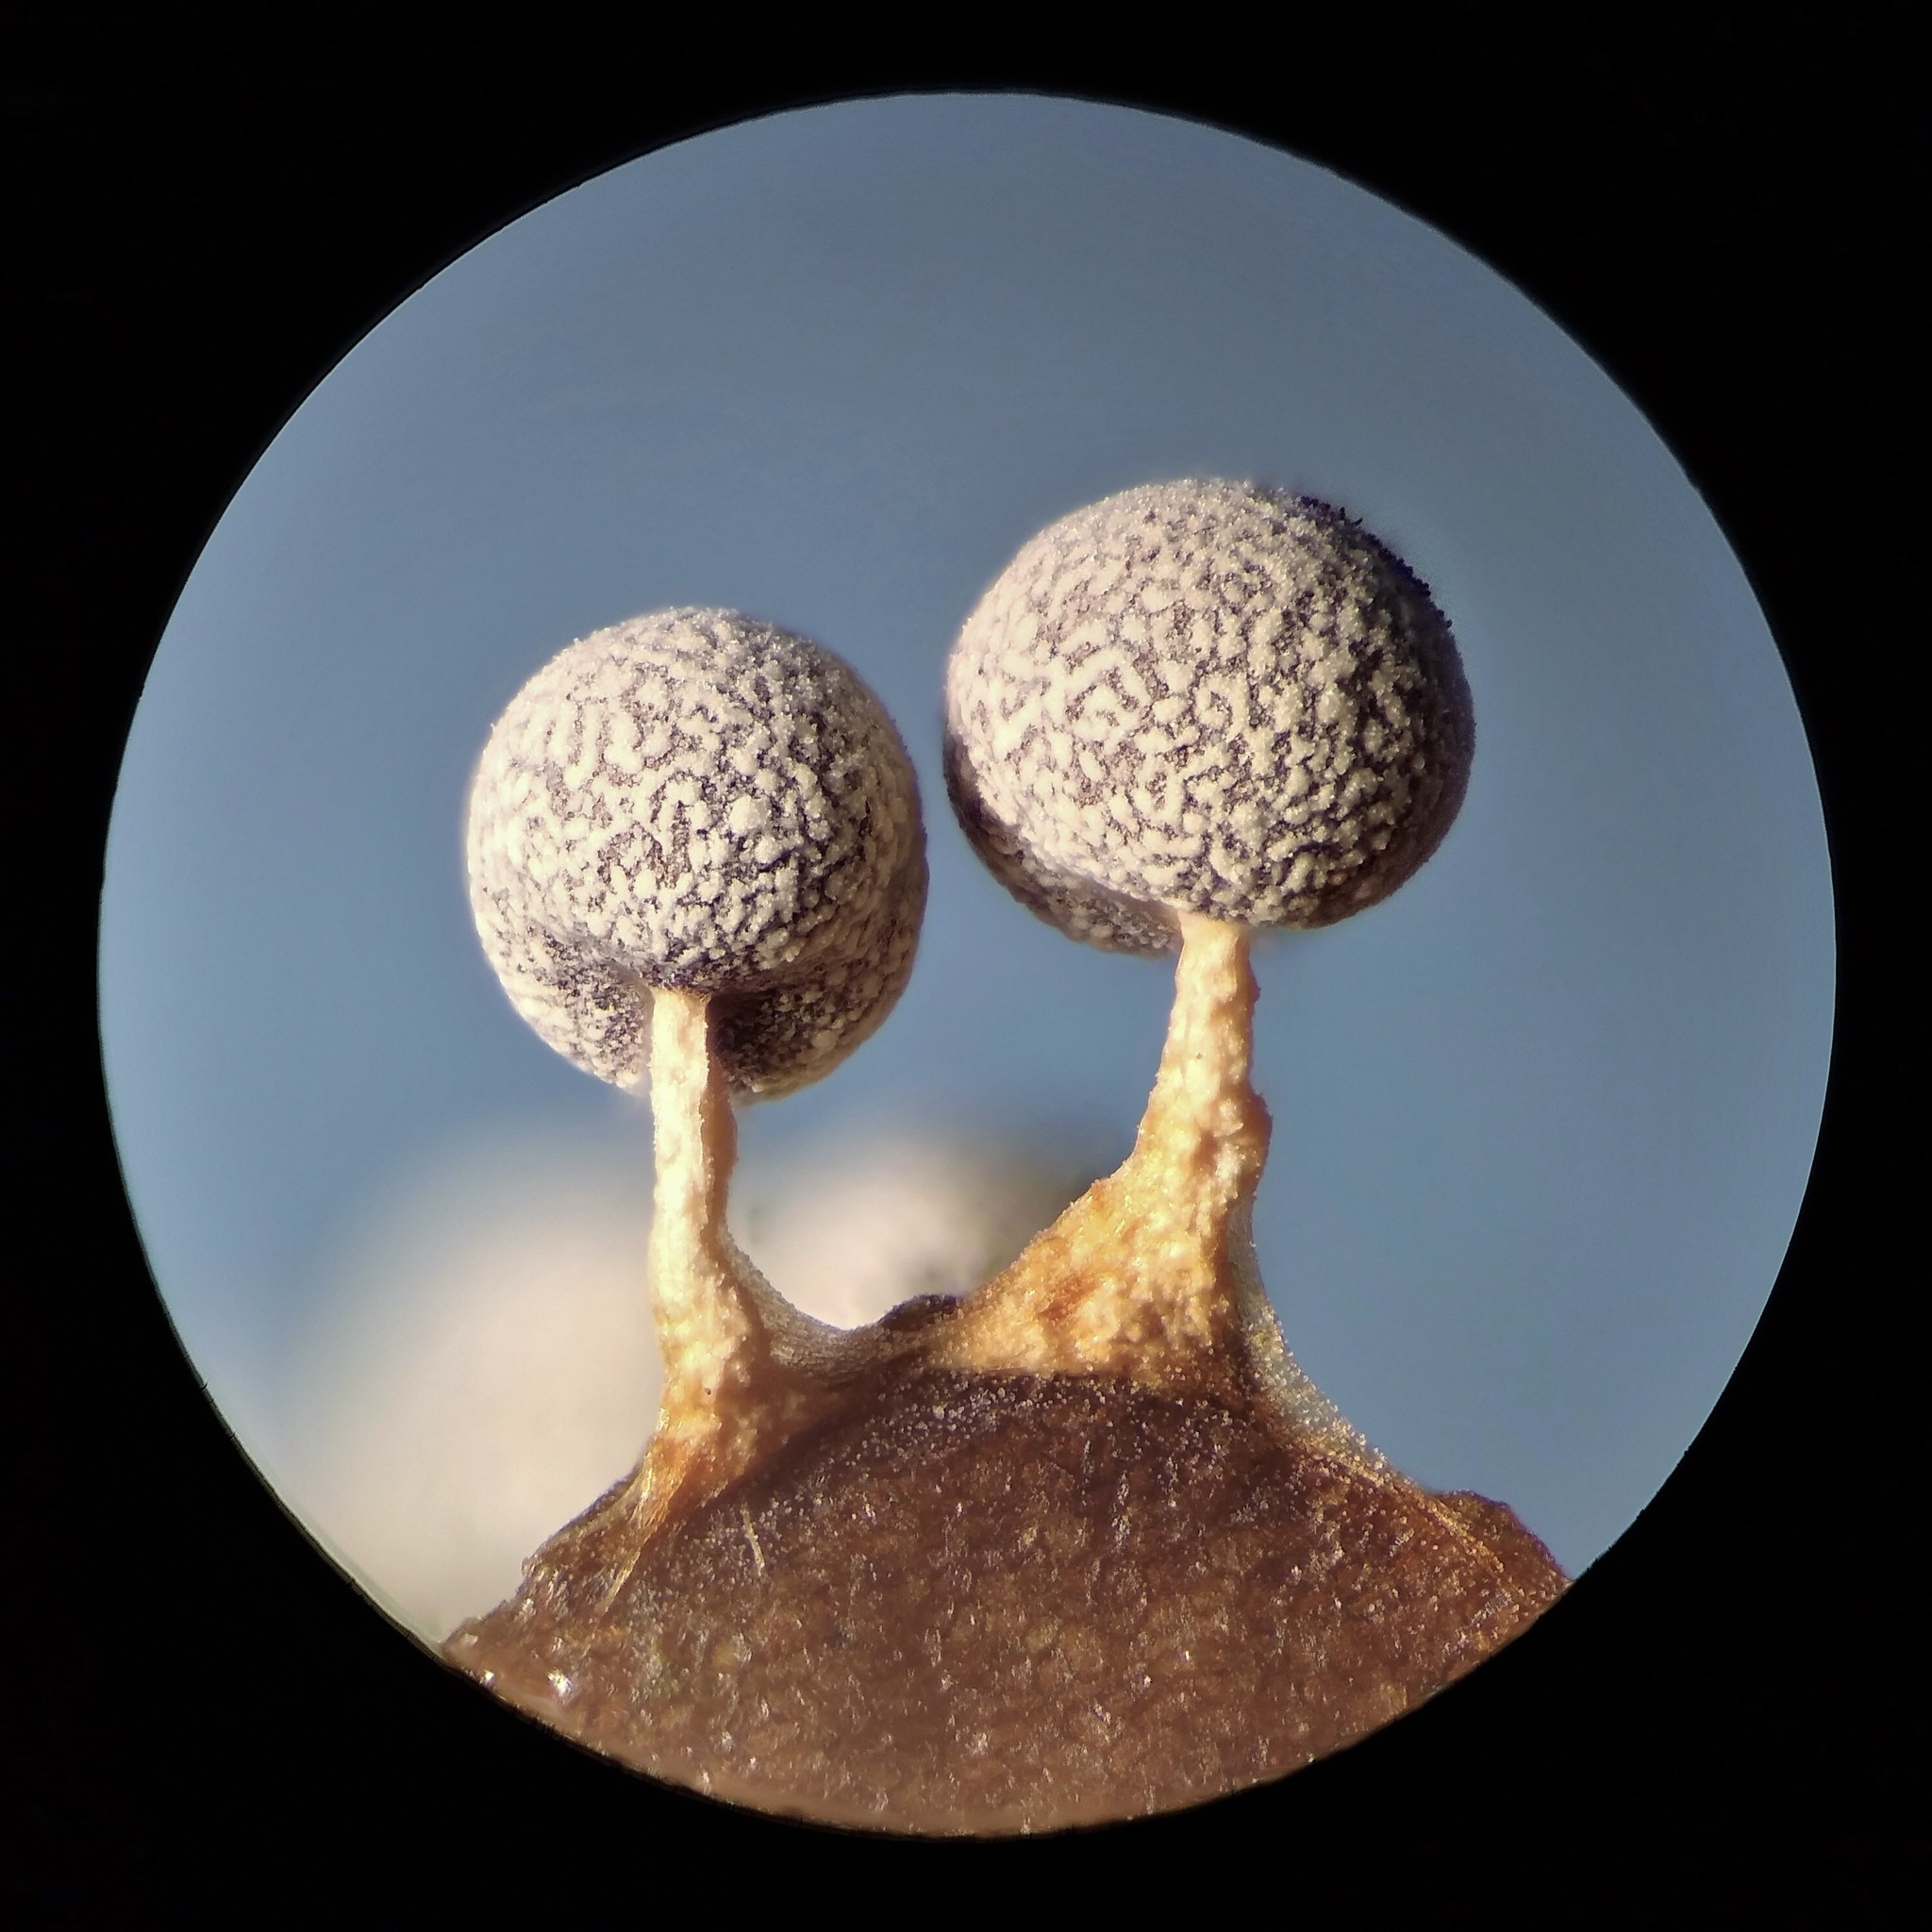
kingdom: Protozoa
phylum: Mycetozoa
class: Myxomycetes
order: Physarales
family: Physaraceae
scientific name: Physaraceae
